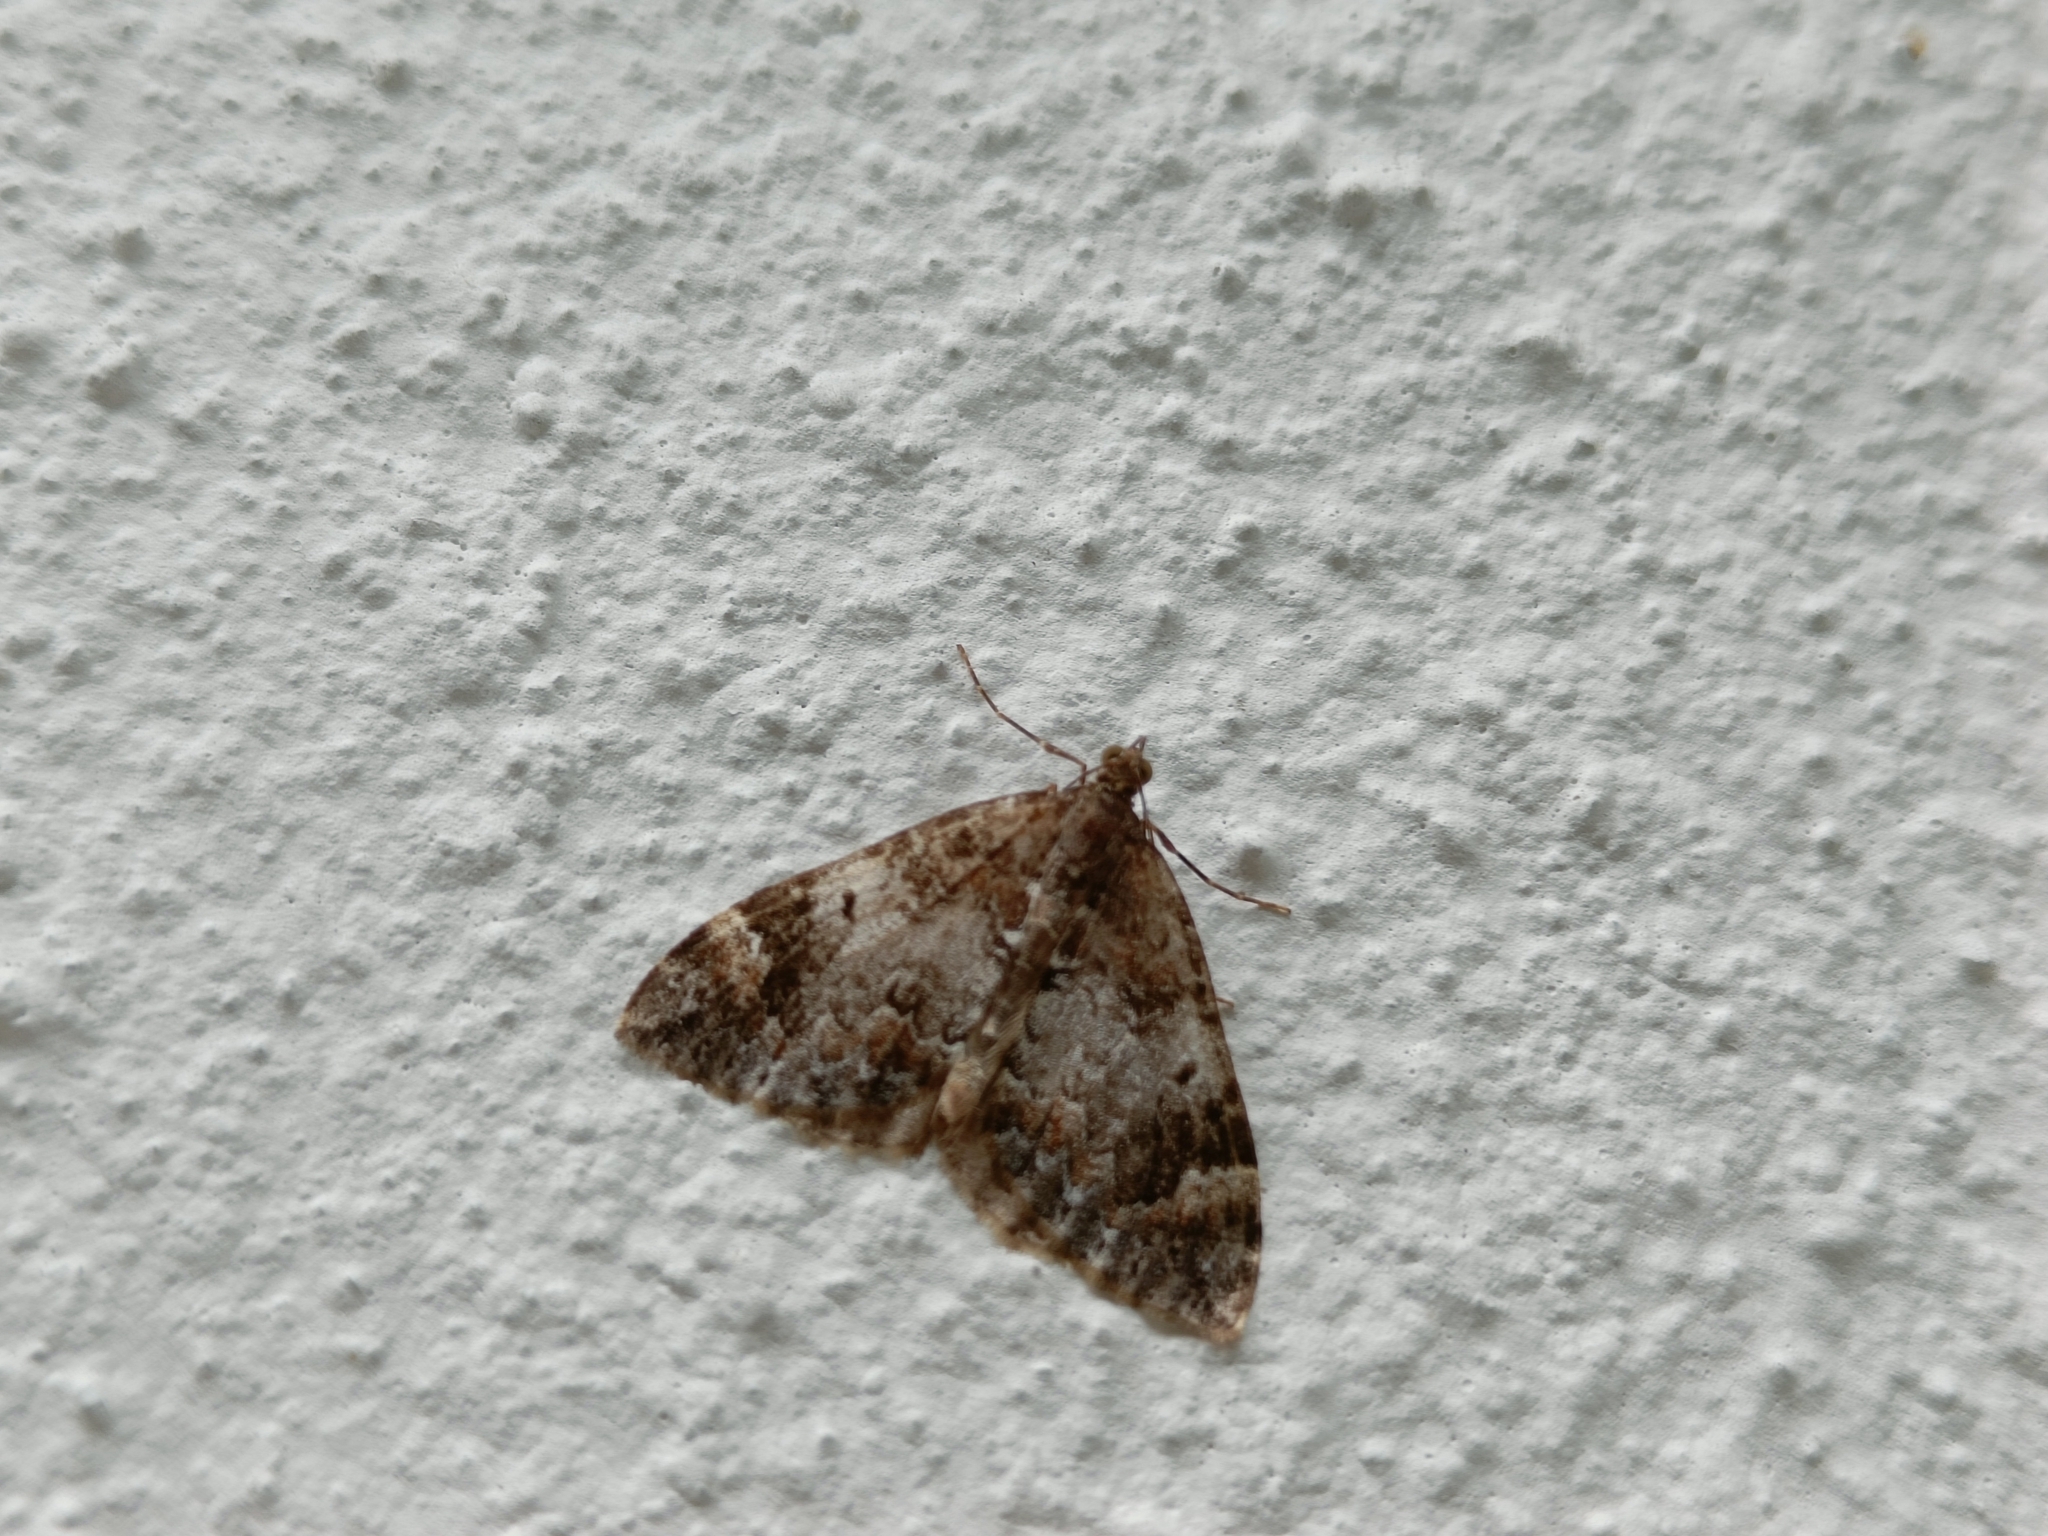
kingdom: Animalia
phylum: Arthropoda
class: Insecta
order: Lepidoptera
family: Geometridae
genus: Dysstroma
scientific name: Dysstroma truncata
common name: Common marbled carpet
